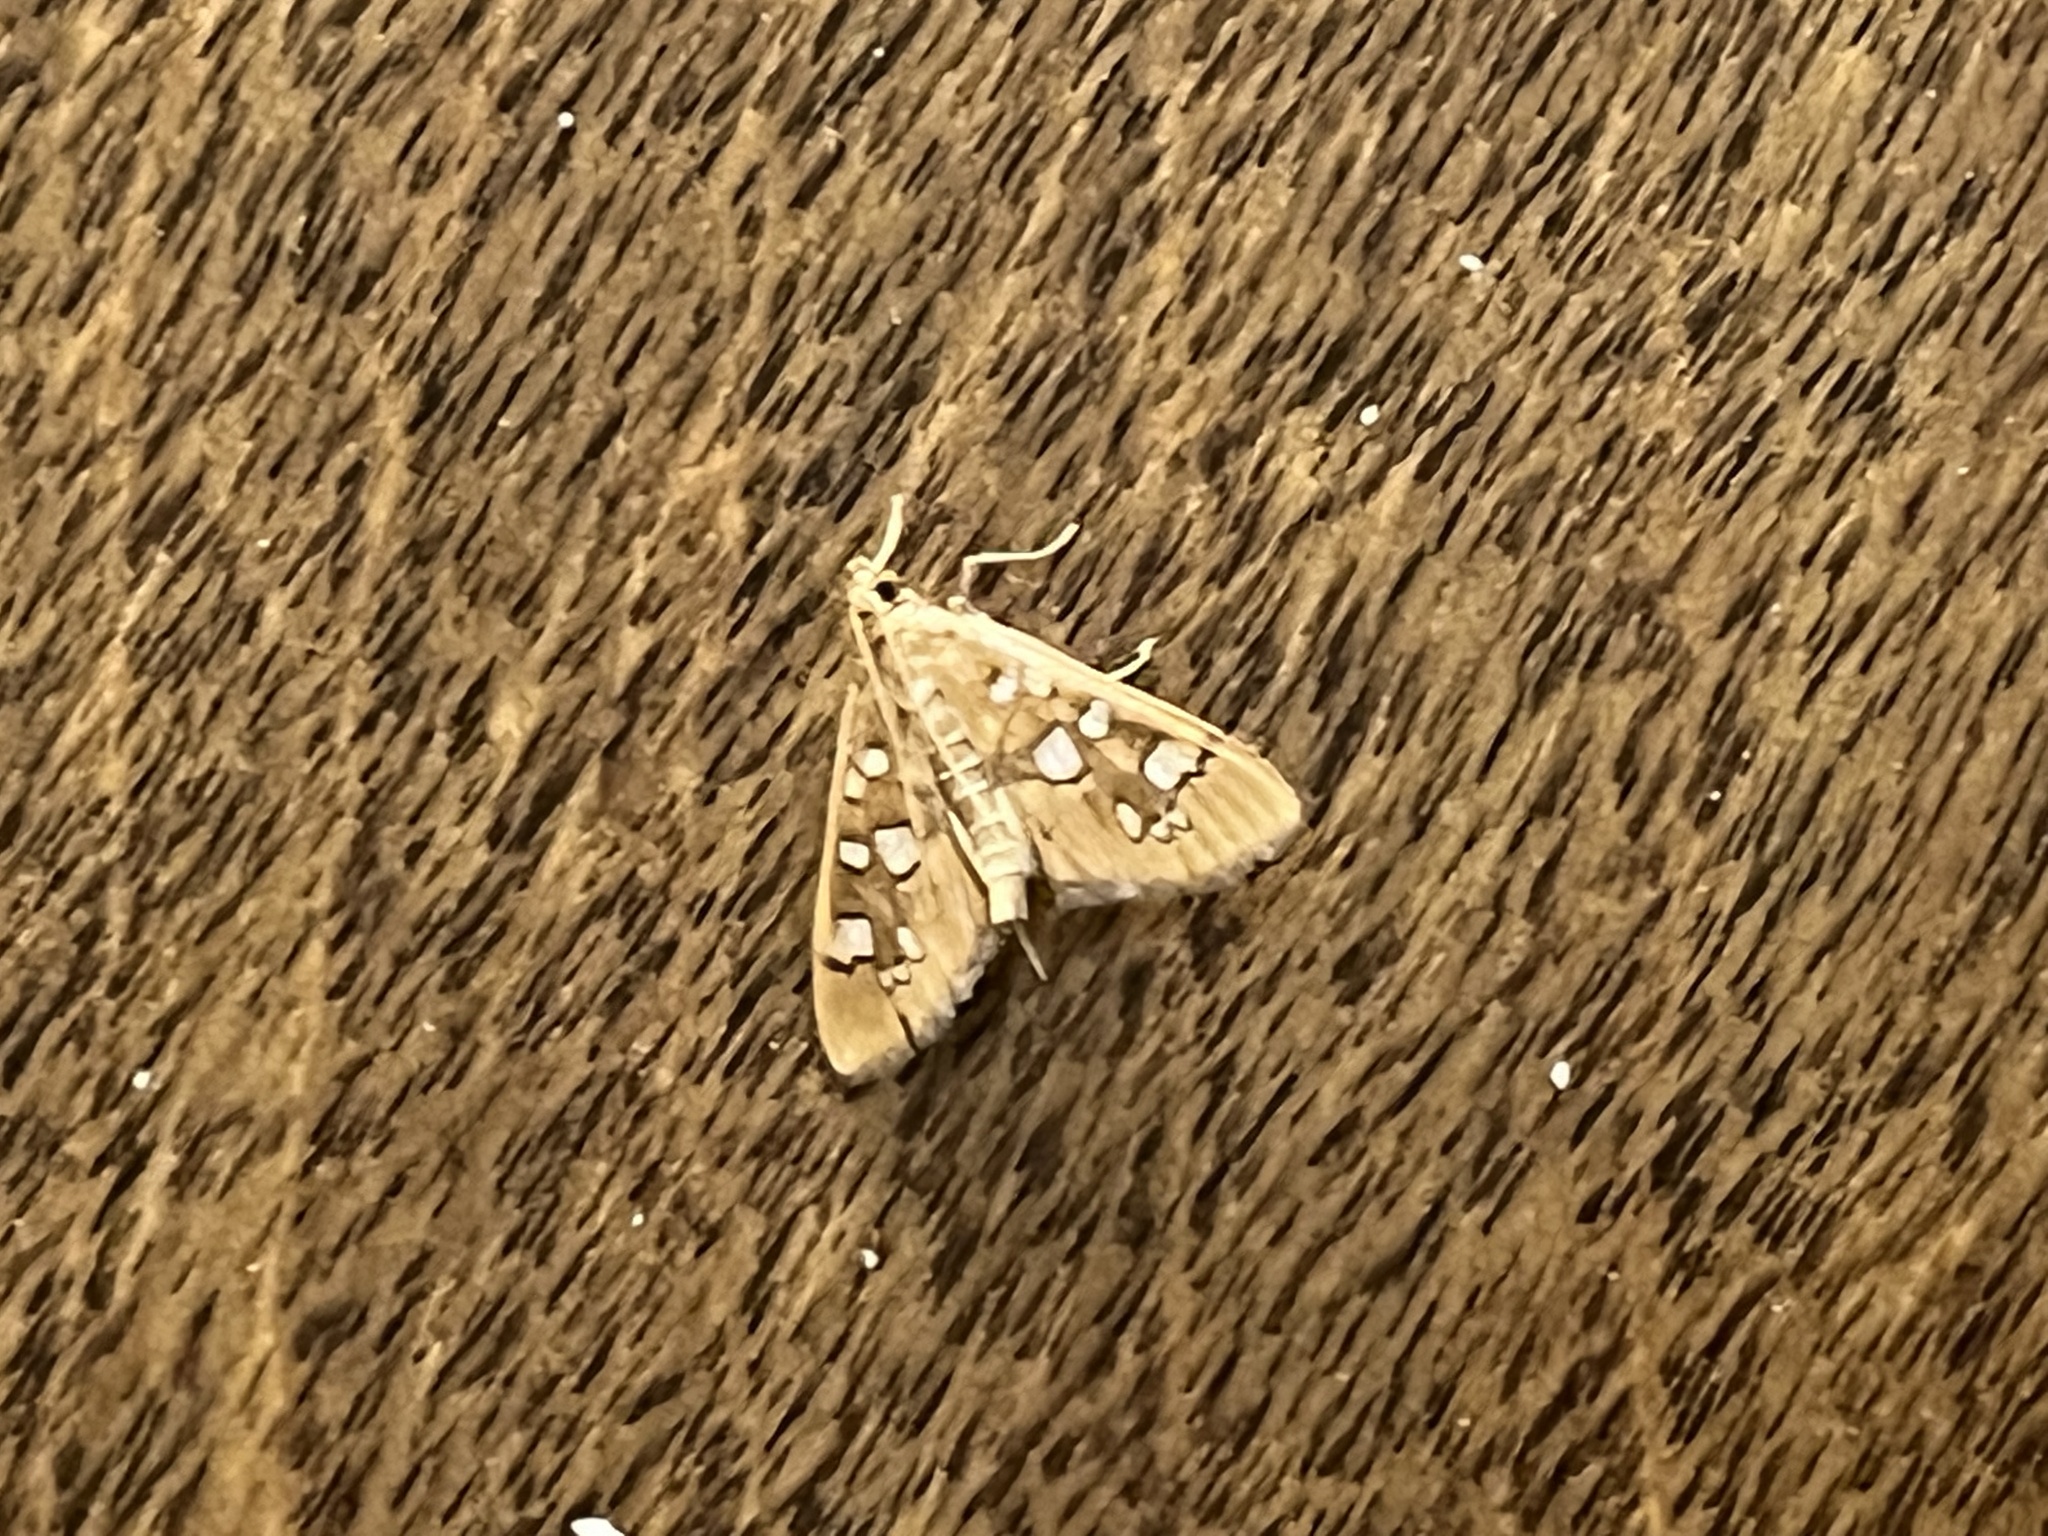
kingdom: Animalia
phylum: Arthropoda
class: Insecta
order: Lepidoptera
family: Crambidae
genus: Samea
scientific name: Samea baccatalis
